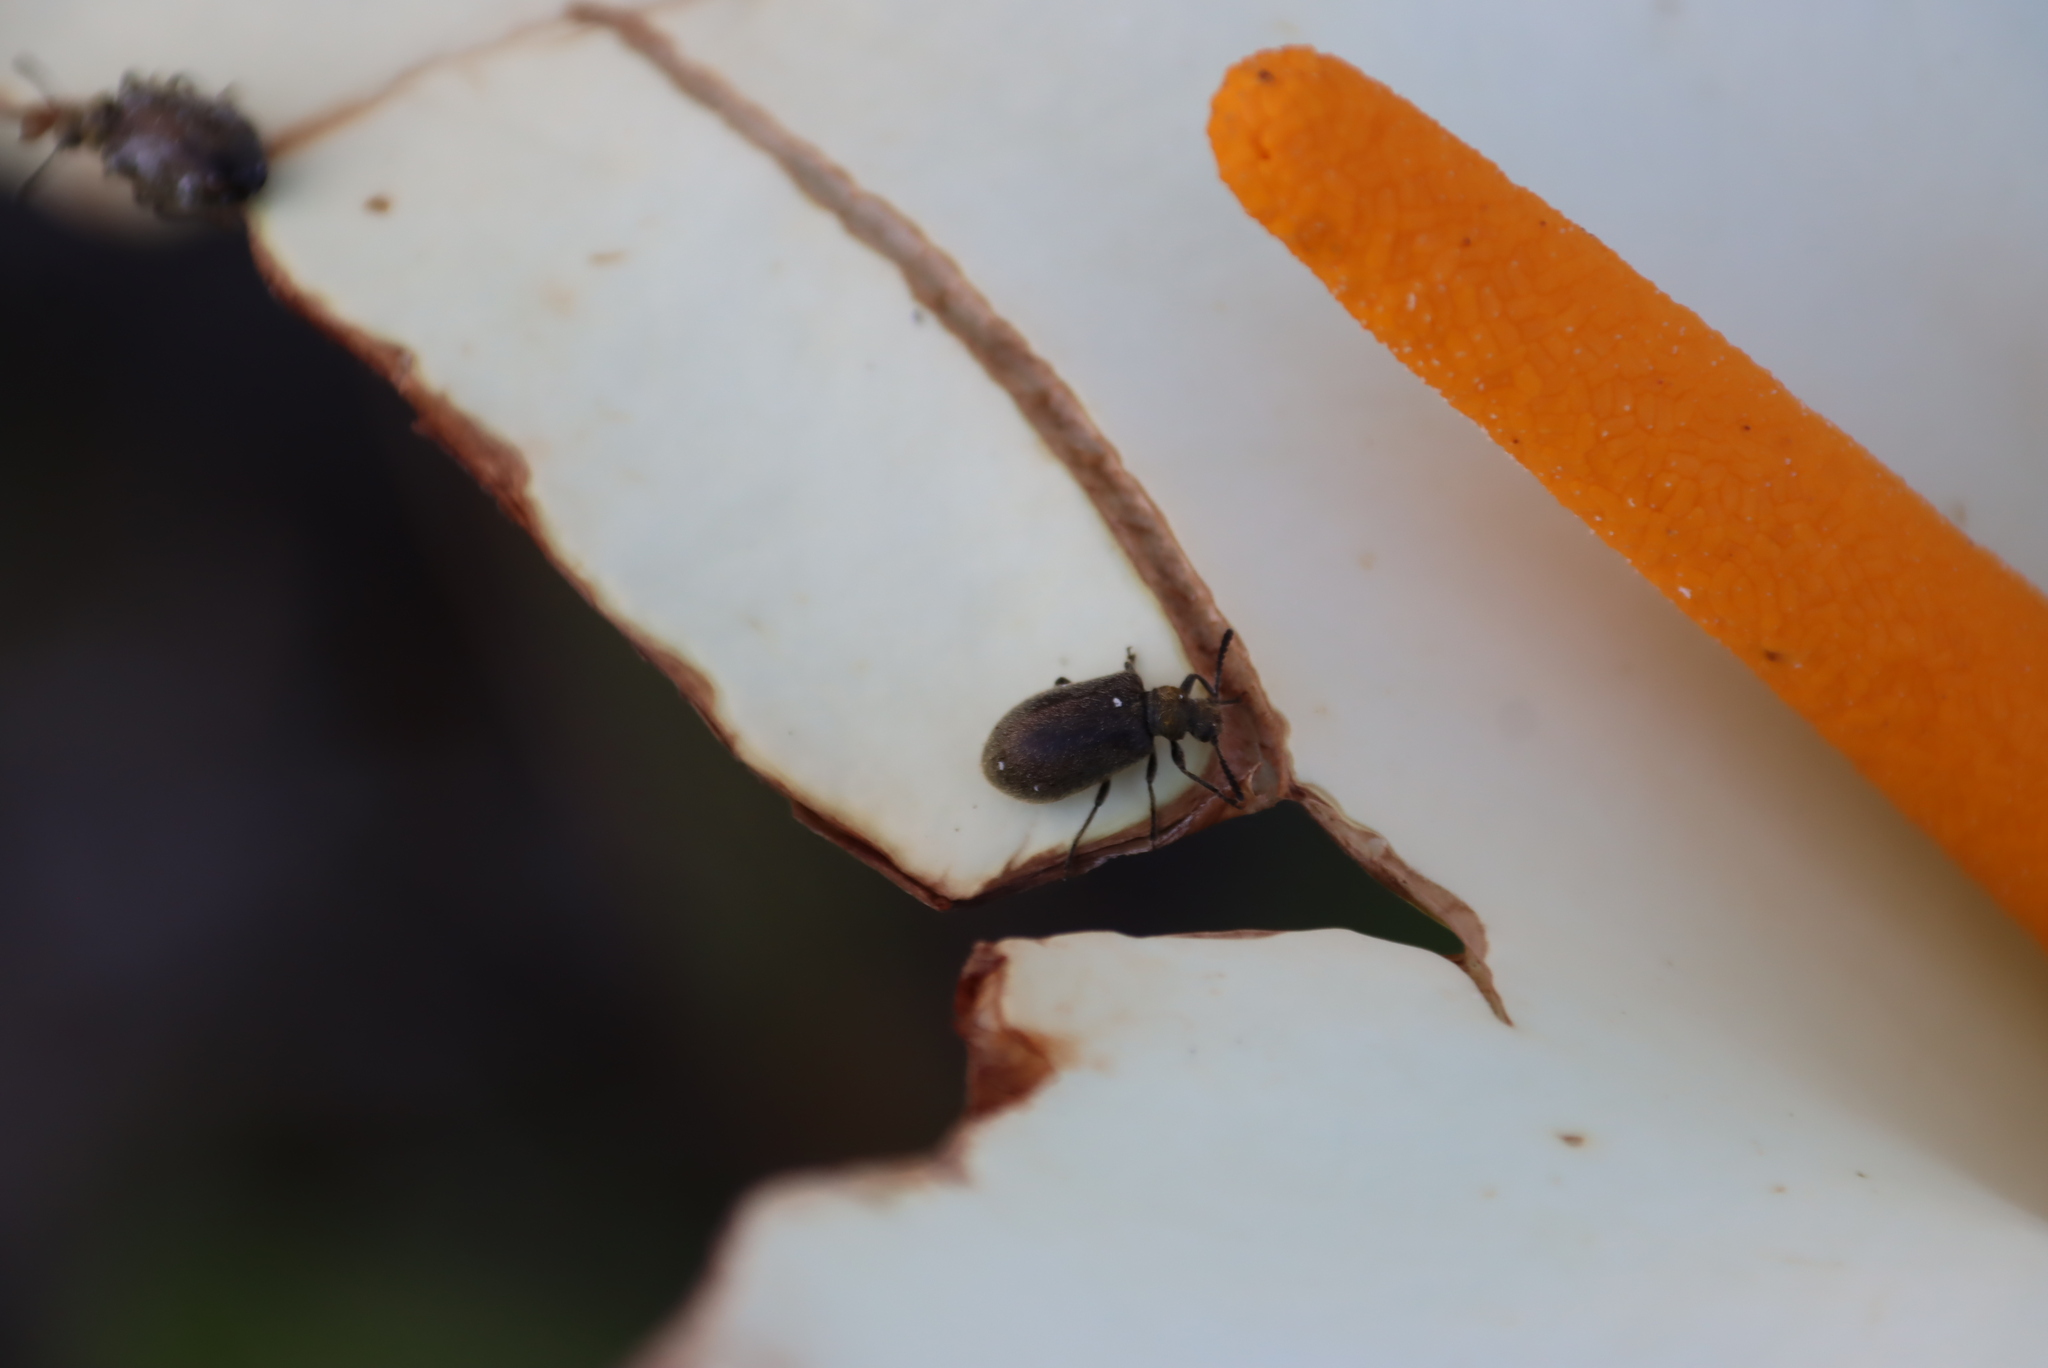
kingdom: Plantae
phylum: Tracheophyta
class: Liliopsida
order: Alismatales
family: Araceae
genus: Zantedeschia
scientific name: Zantedeschia aethiopica
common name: Altar-lily
